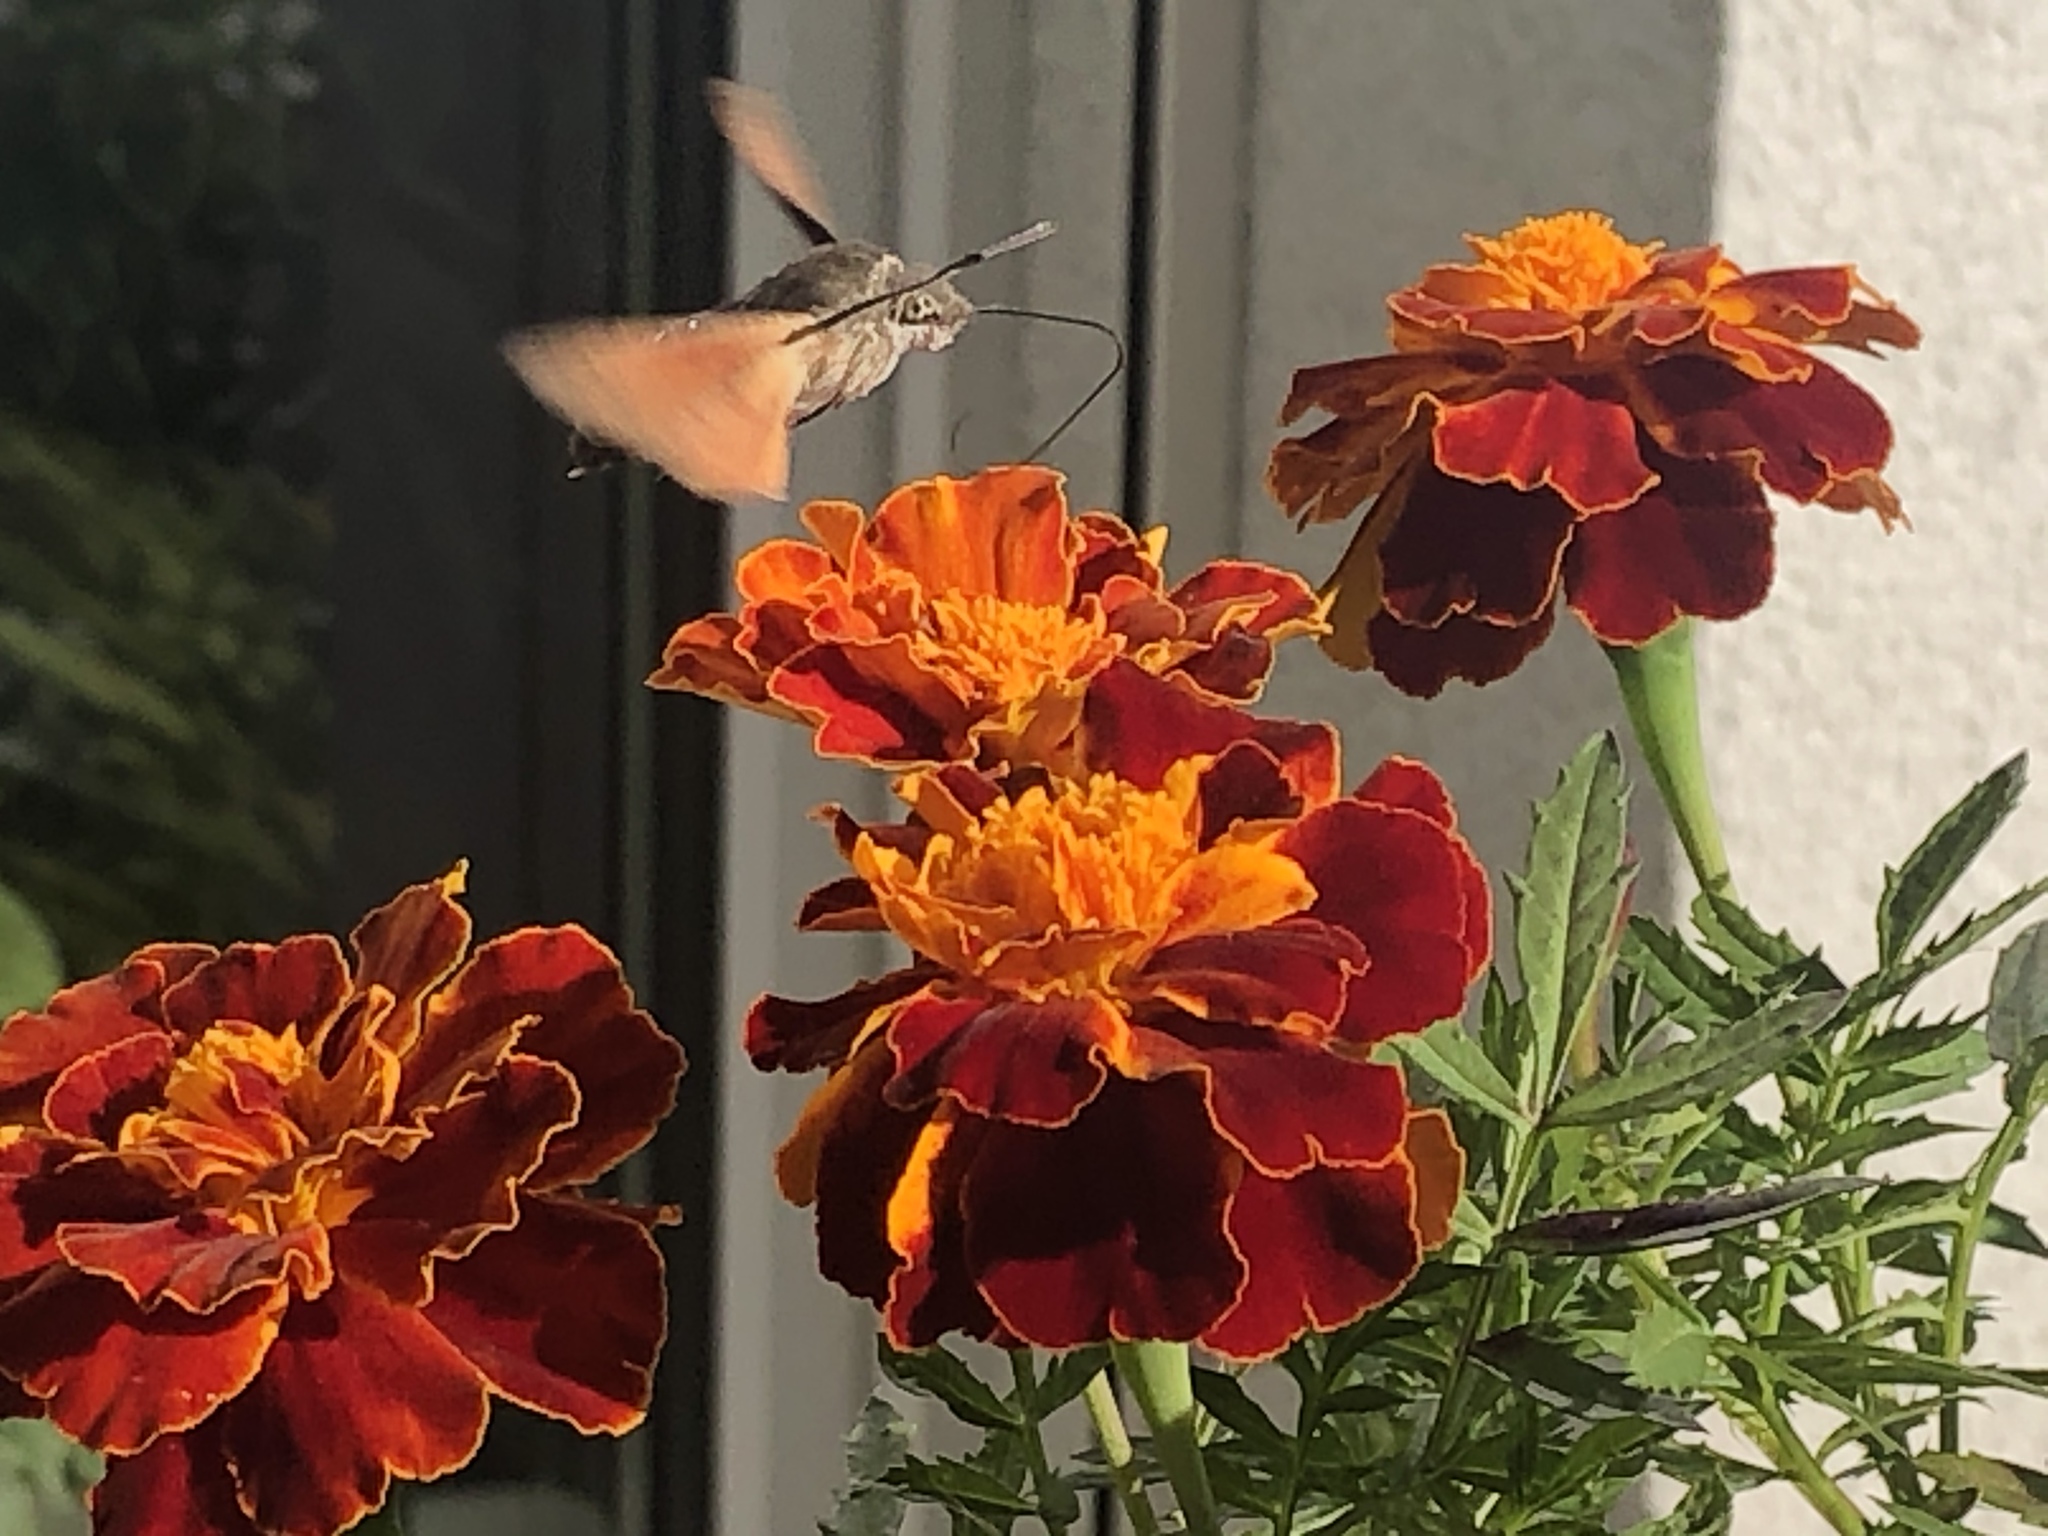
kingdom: Animalia
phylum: Arthropoda
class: Insecta
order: Lepidoptera
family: Sphingidae
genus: Macroglossum
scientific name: Macroglossum stellatarum
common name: Humming-bird hawk-moth
